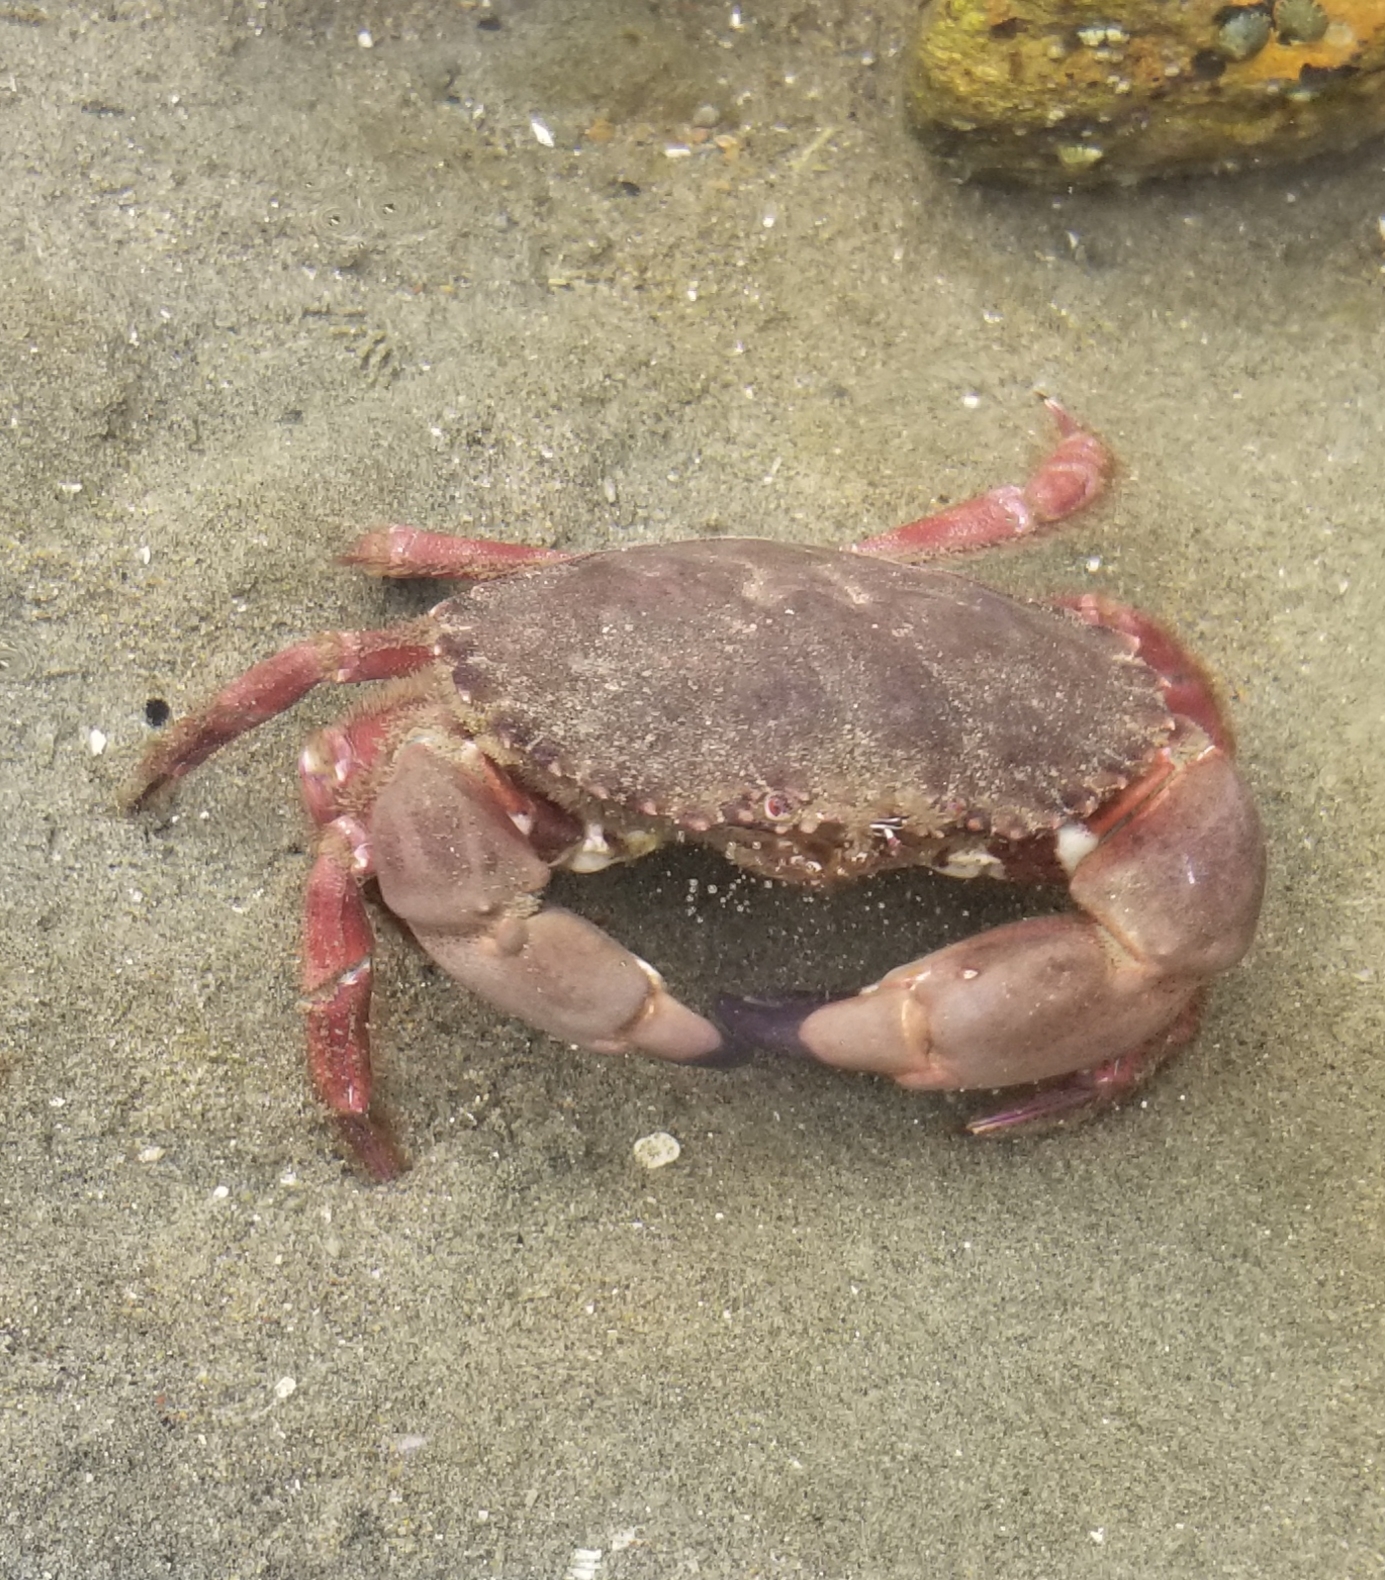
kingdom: Animalia
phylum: Arthropoda
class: Malacostraca
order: Decapoda
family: Cancridae
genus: Romaleon
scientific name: Romaleon antennarium
